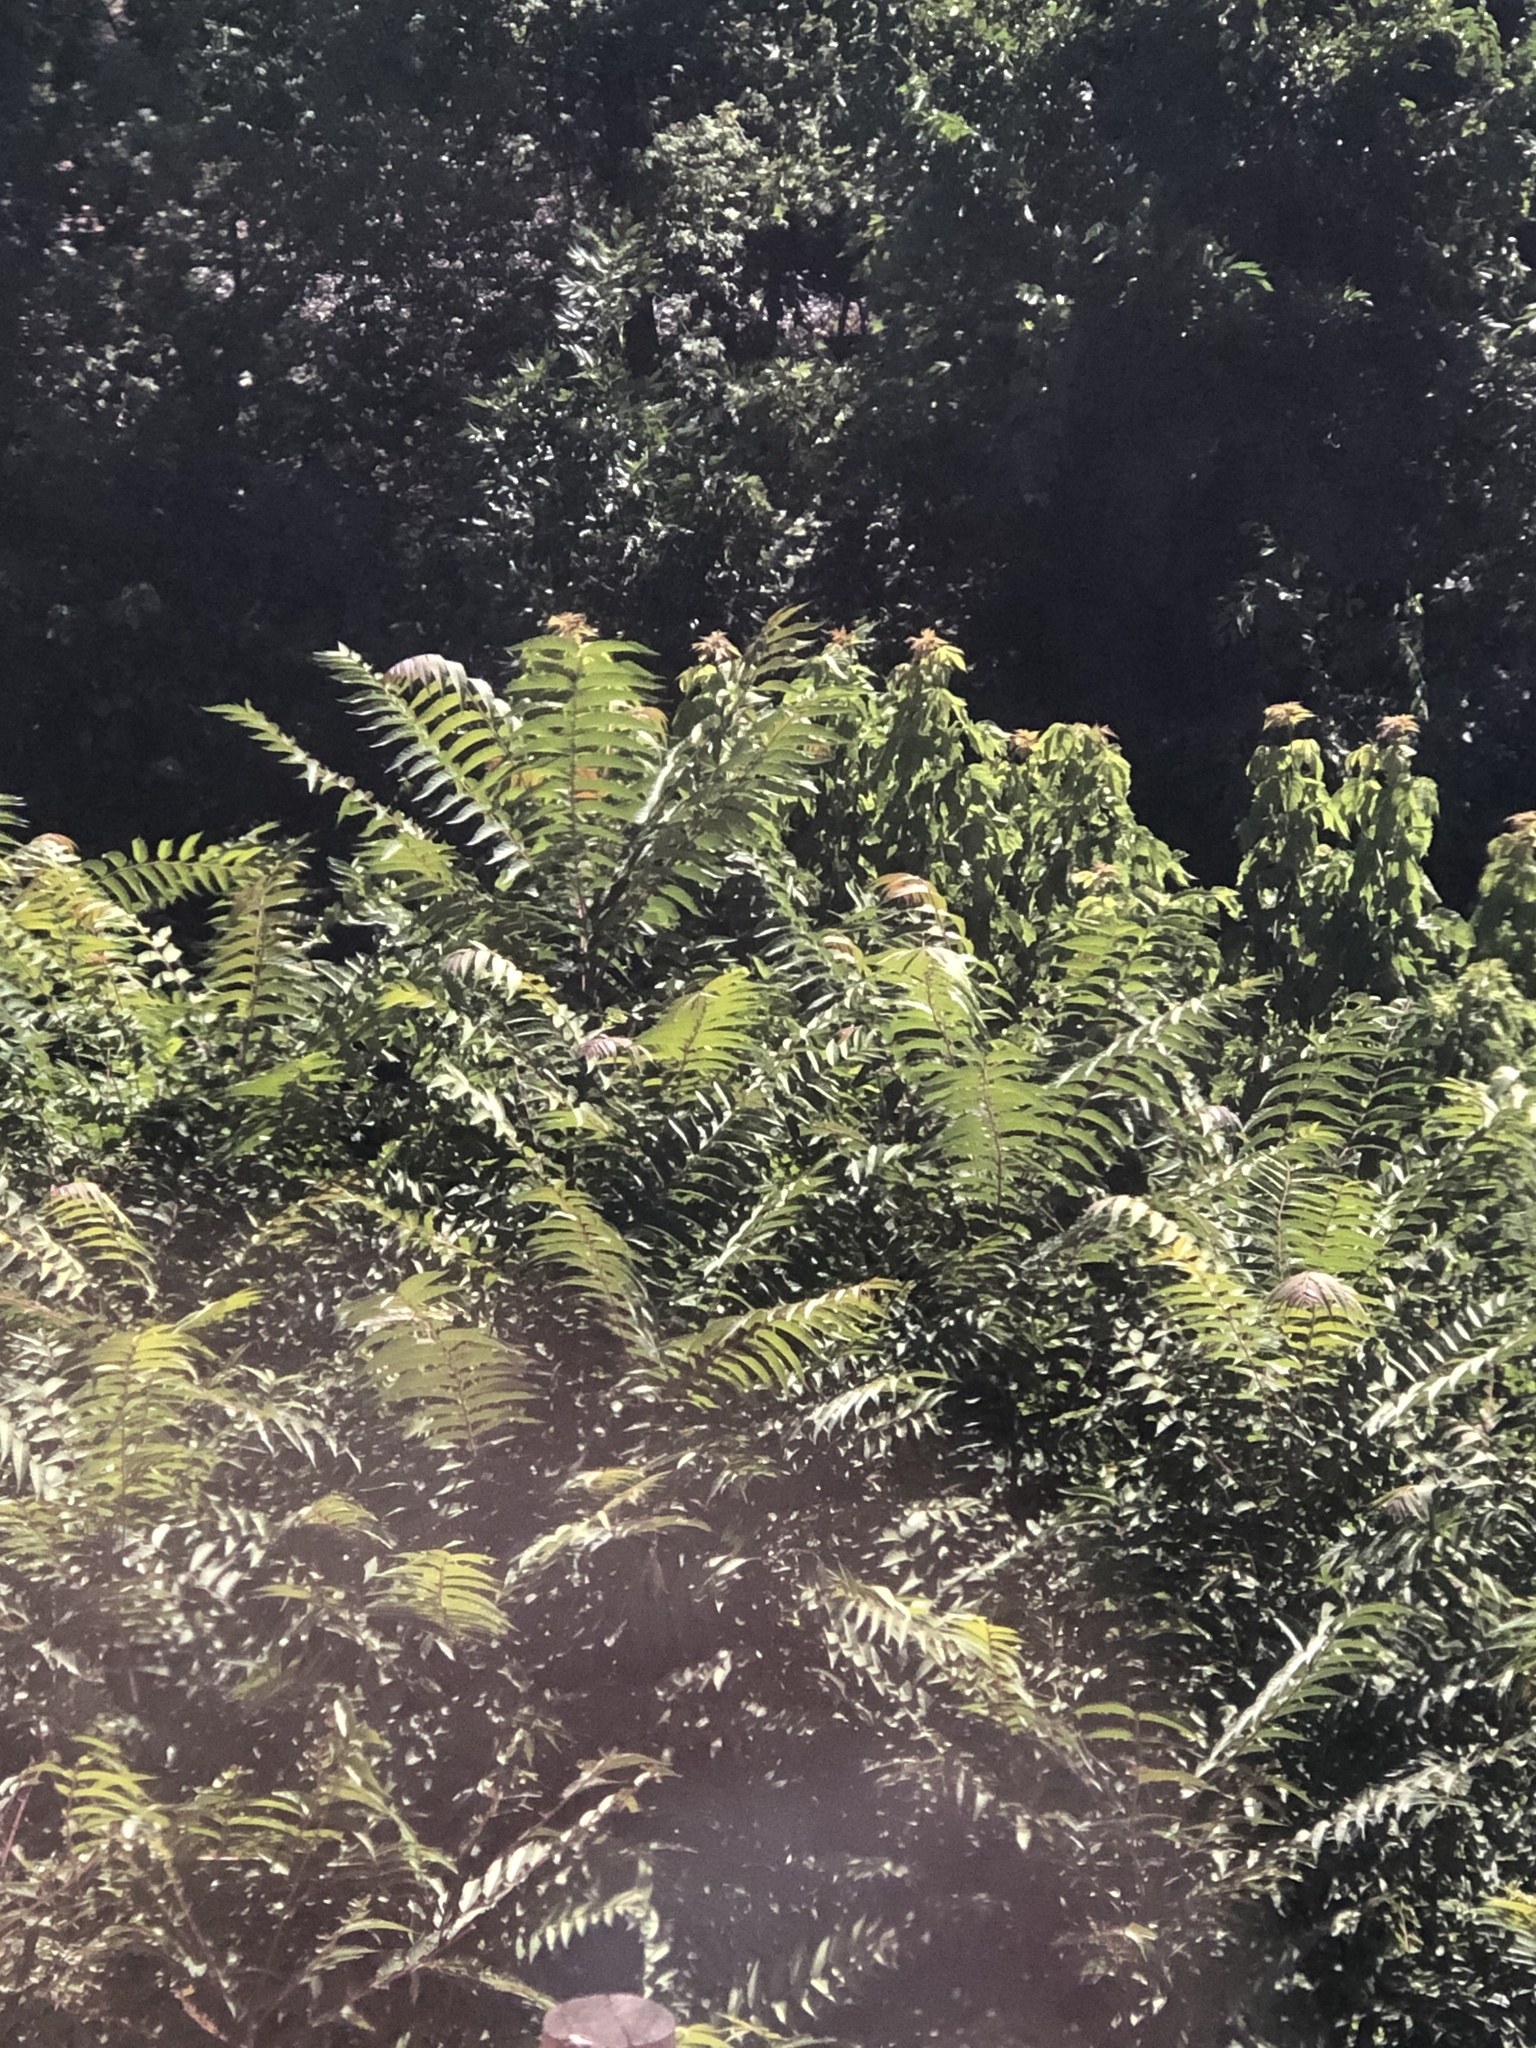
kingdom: Plantae
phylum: Tracheophyta
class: Magnoliopsida
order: Sapindales
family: Simaroubaceae
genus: Ailanthus
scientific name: Ailanthus altissima
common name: Tree-of-heaven
